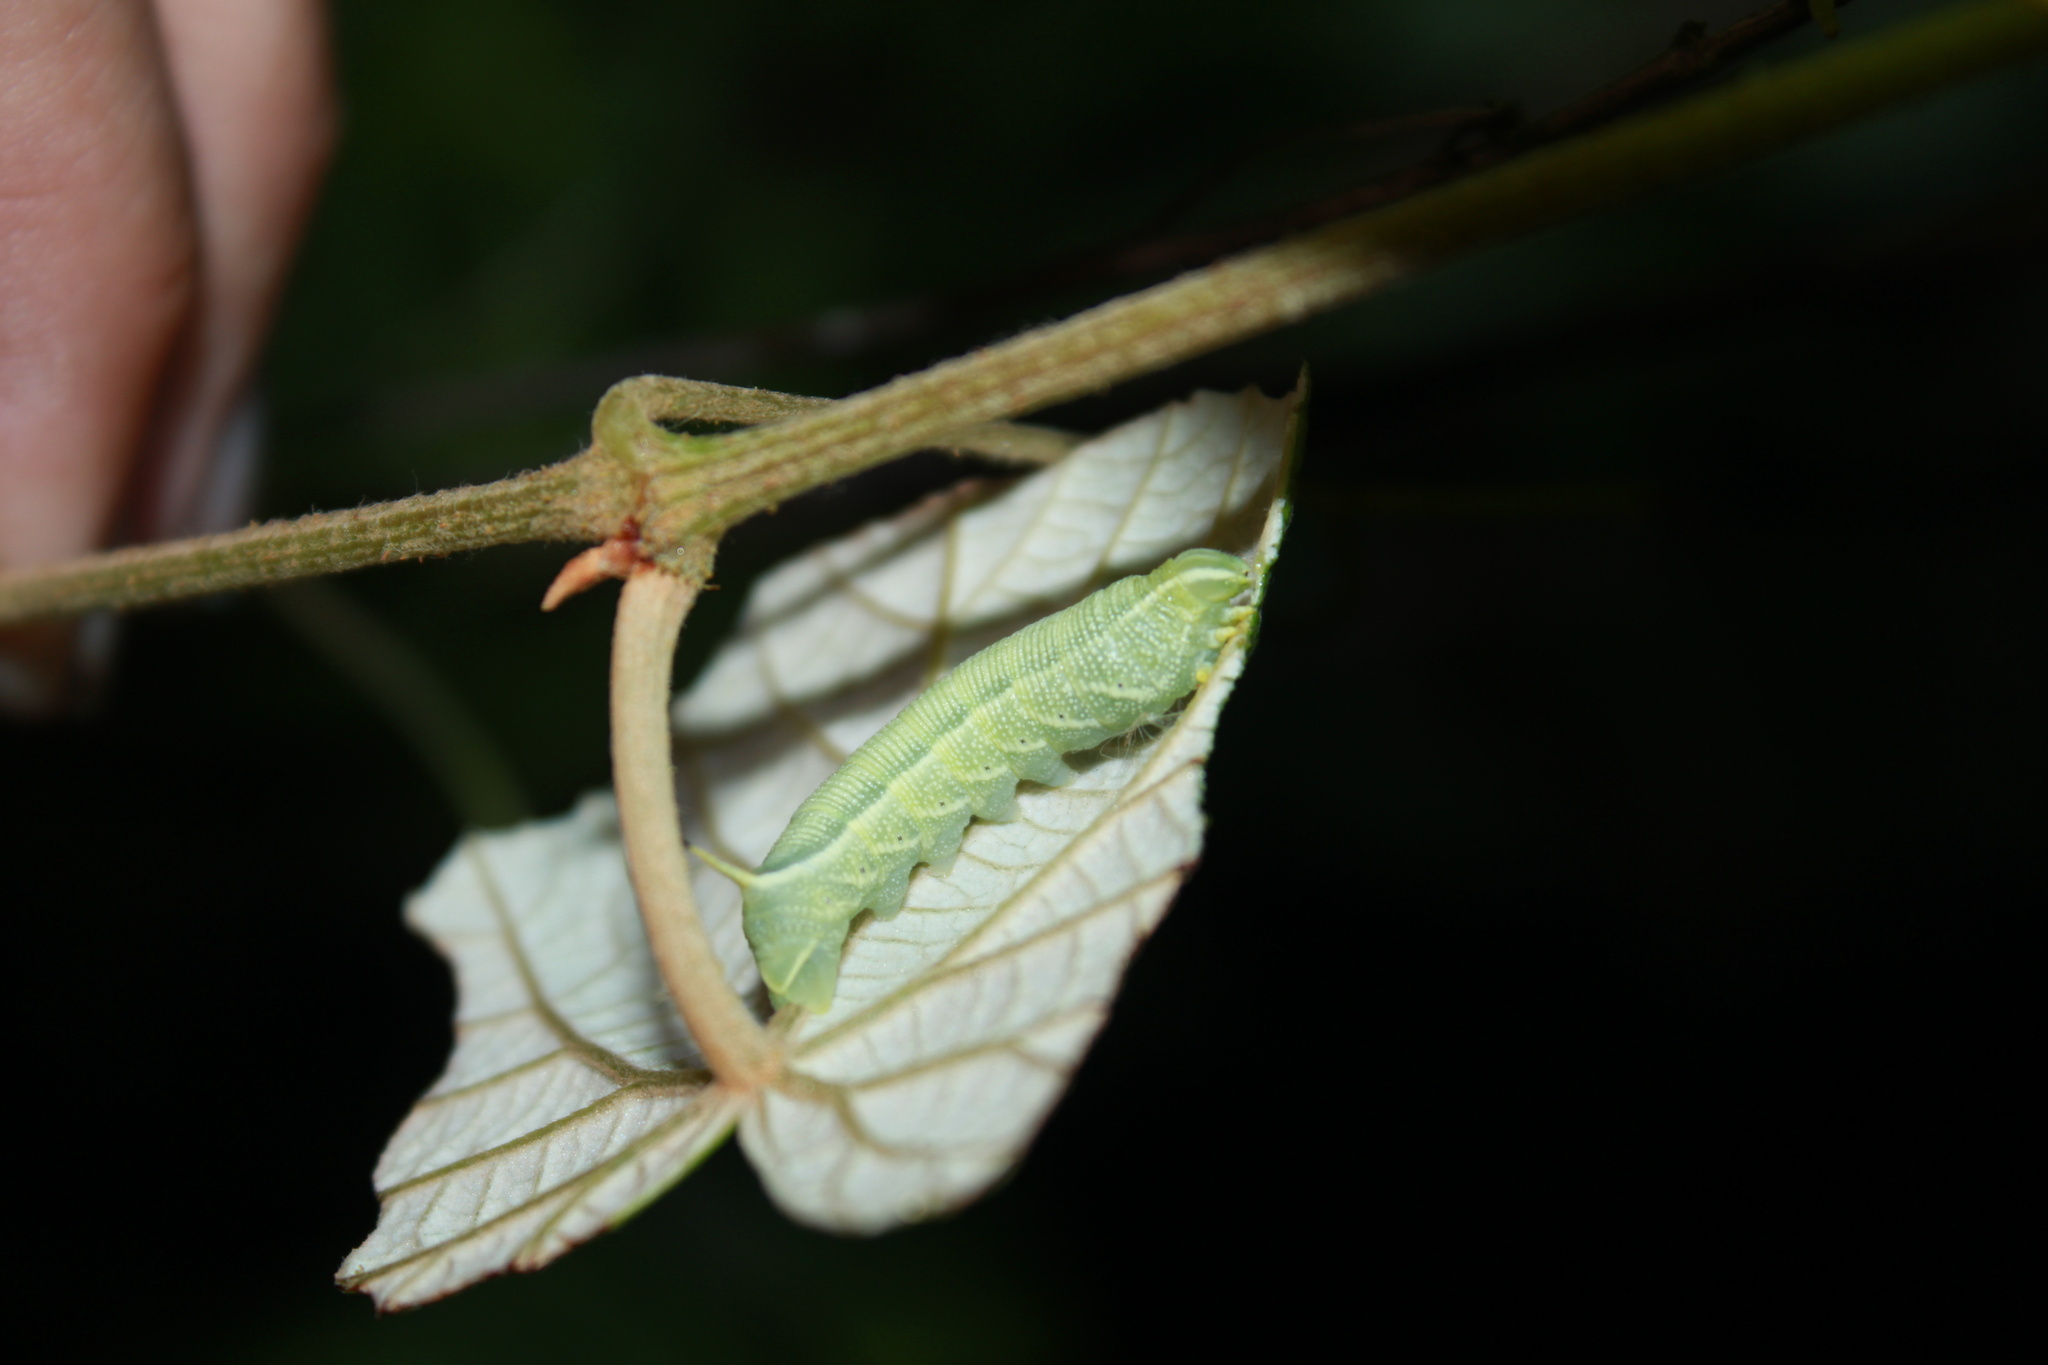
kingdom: Animalia
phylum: Arthropoda
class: Insecta
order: Lepidoptera
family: Sphingidae
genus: Deidamia
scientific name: Deidamia inscriptum
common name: Lettered sphinx
